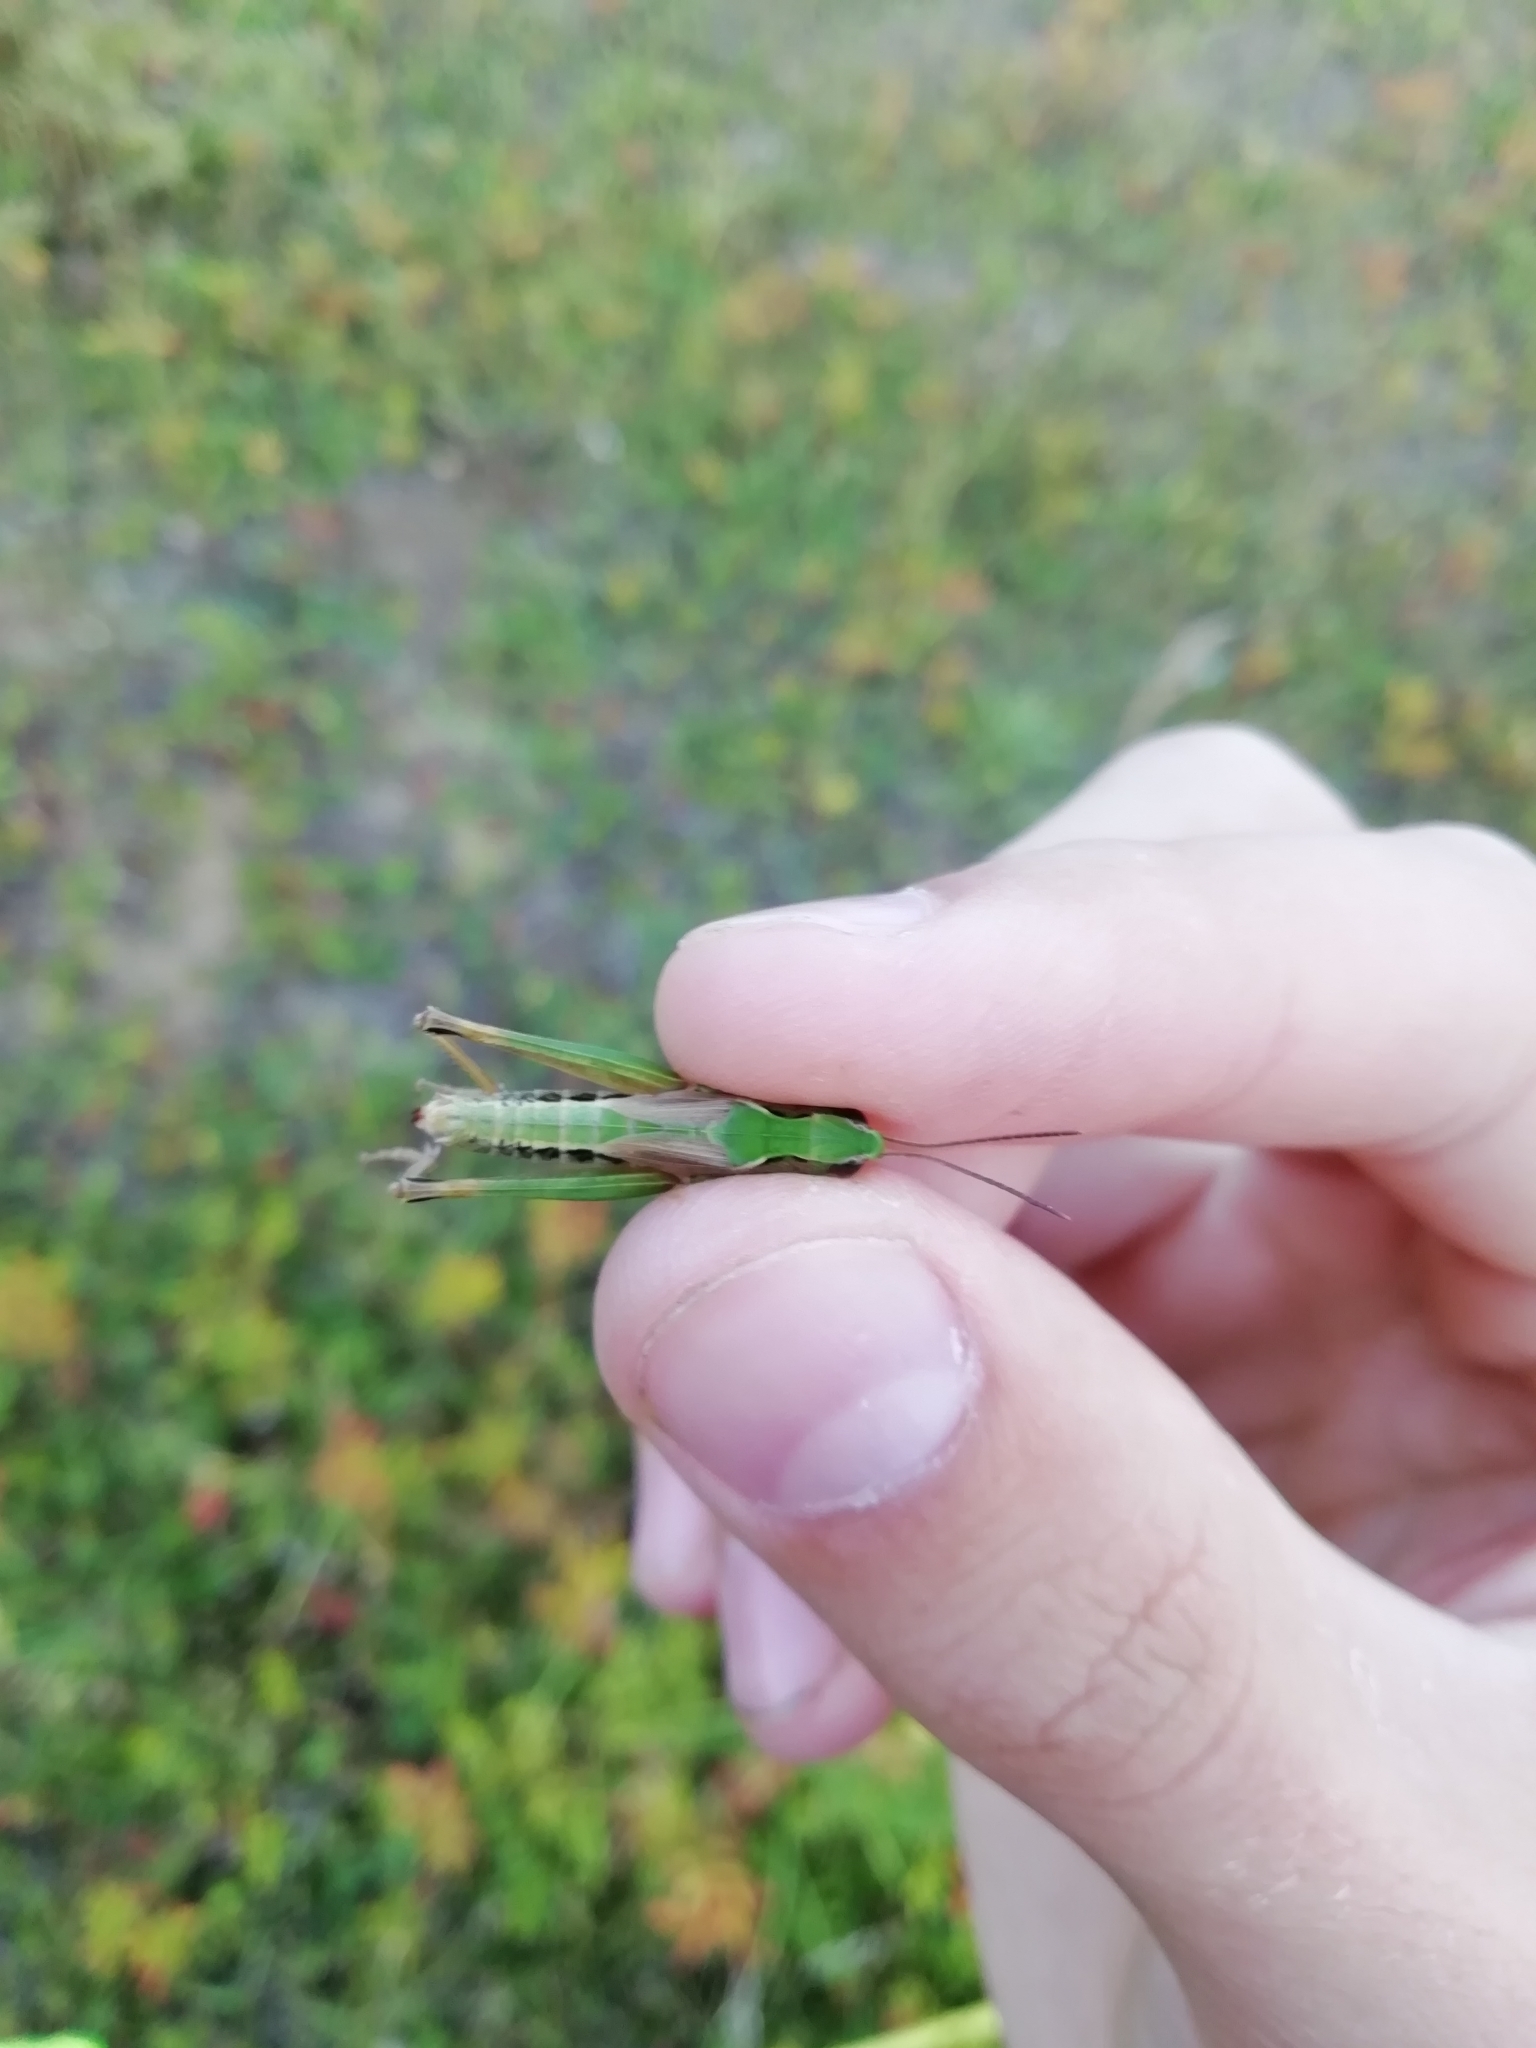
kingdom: Animalia
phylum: Arthropoda
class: Insecta
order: Orthoptera
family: Acrididae
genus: Chorthippus
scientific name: Chorthippus fallax
